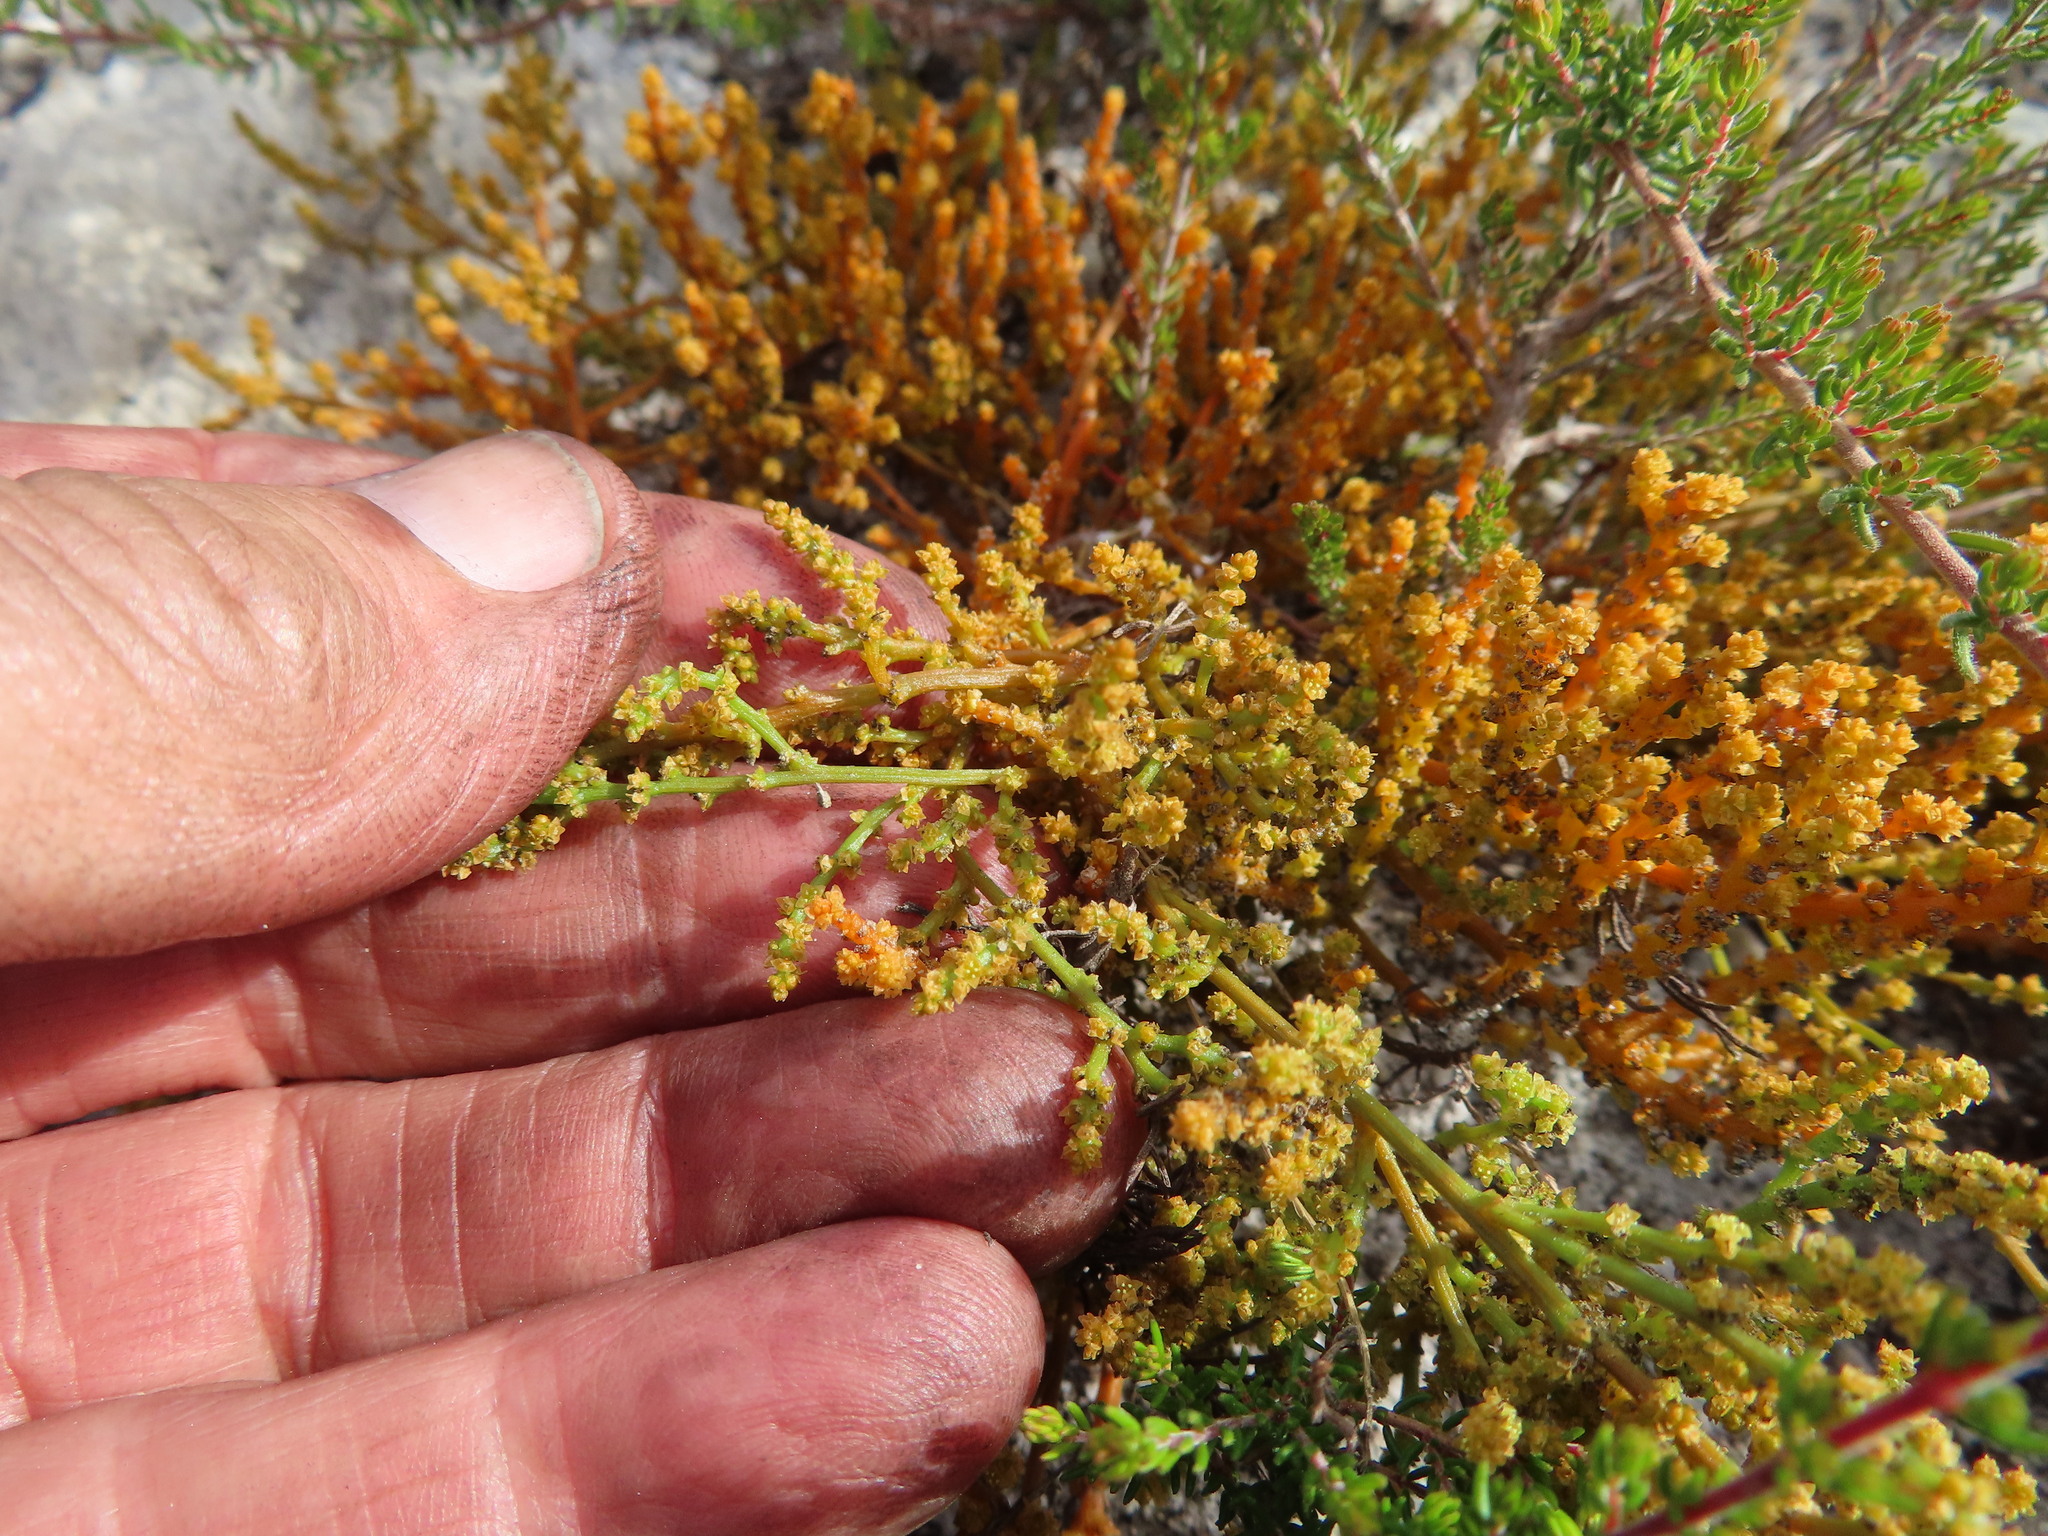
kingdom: Plantae
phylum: Tracheophyta
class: Magnoliopsida
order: Santalales
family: Thesiaceae
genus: Thesium
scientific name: Thesium fragile
